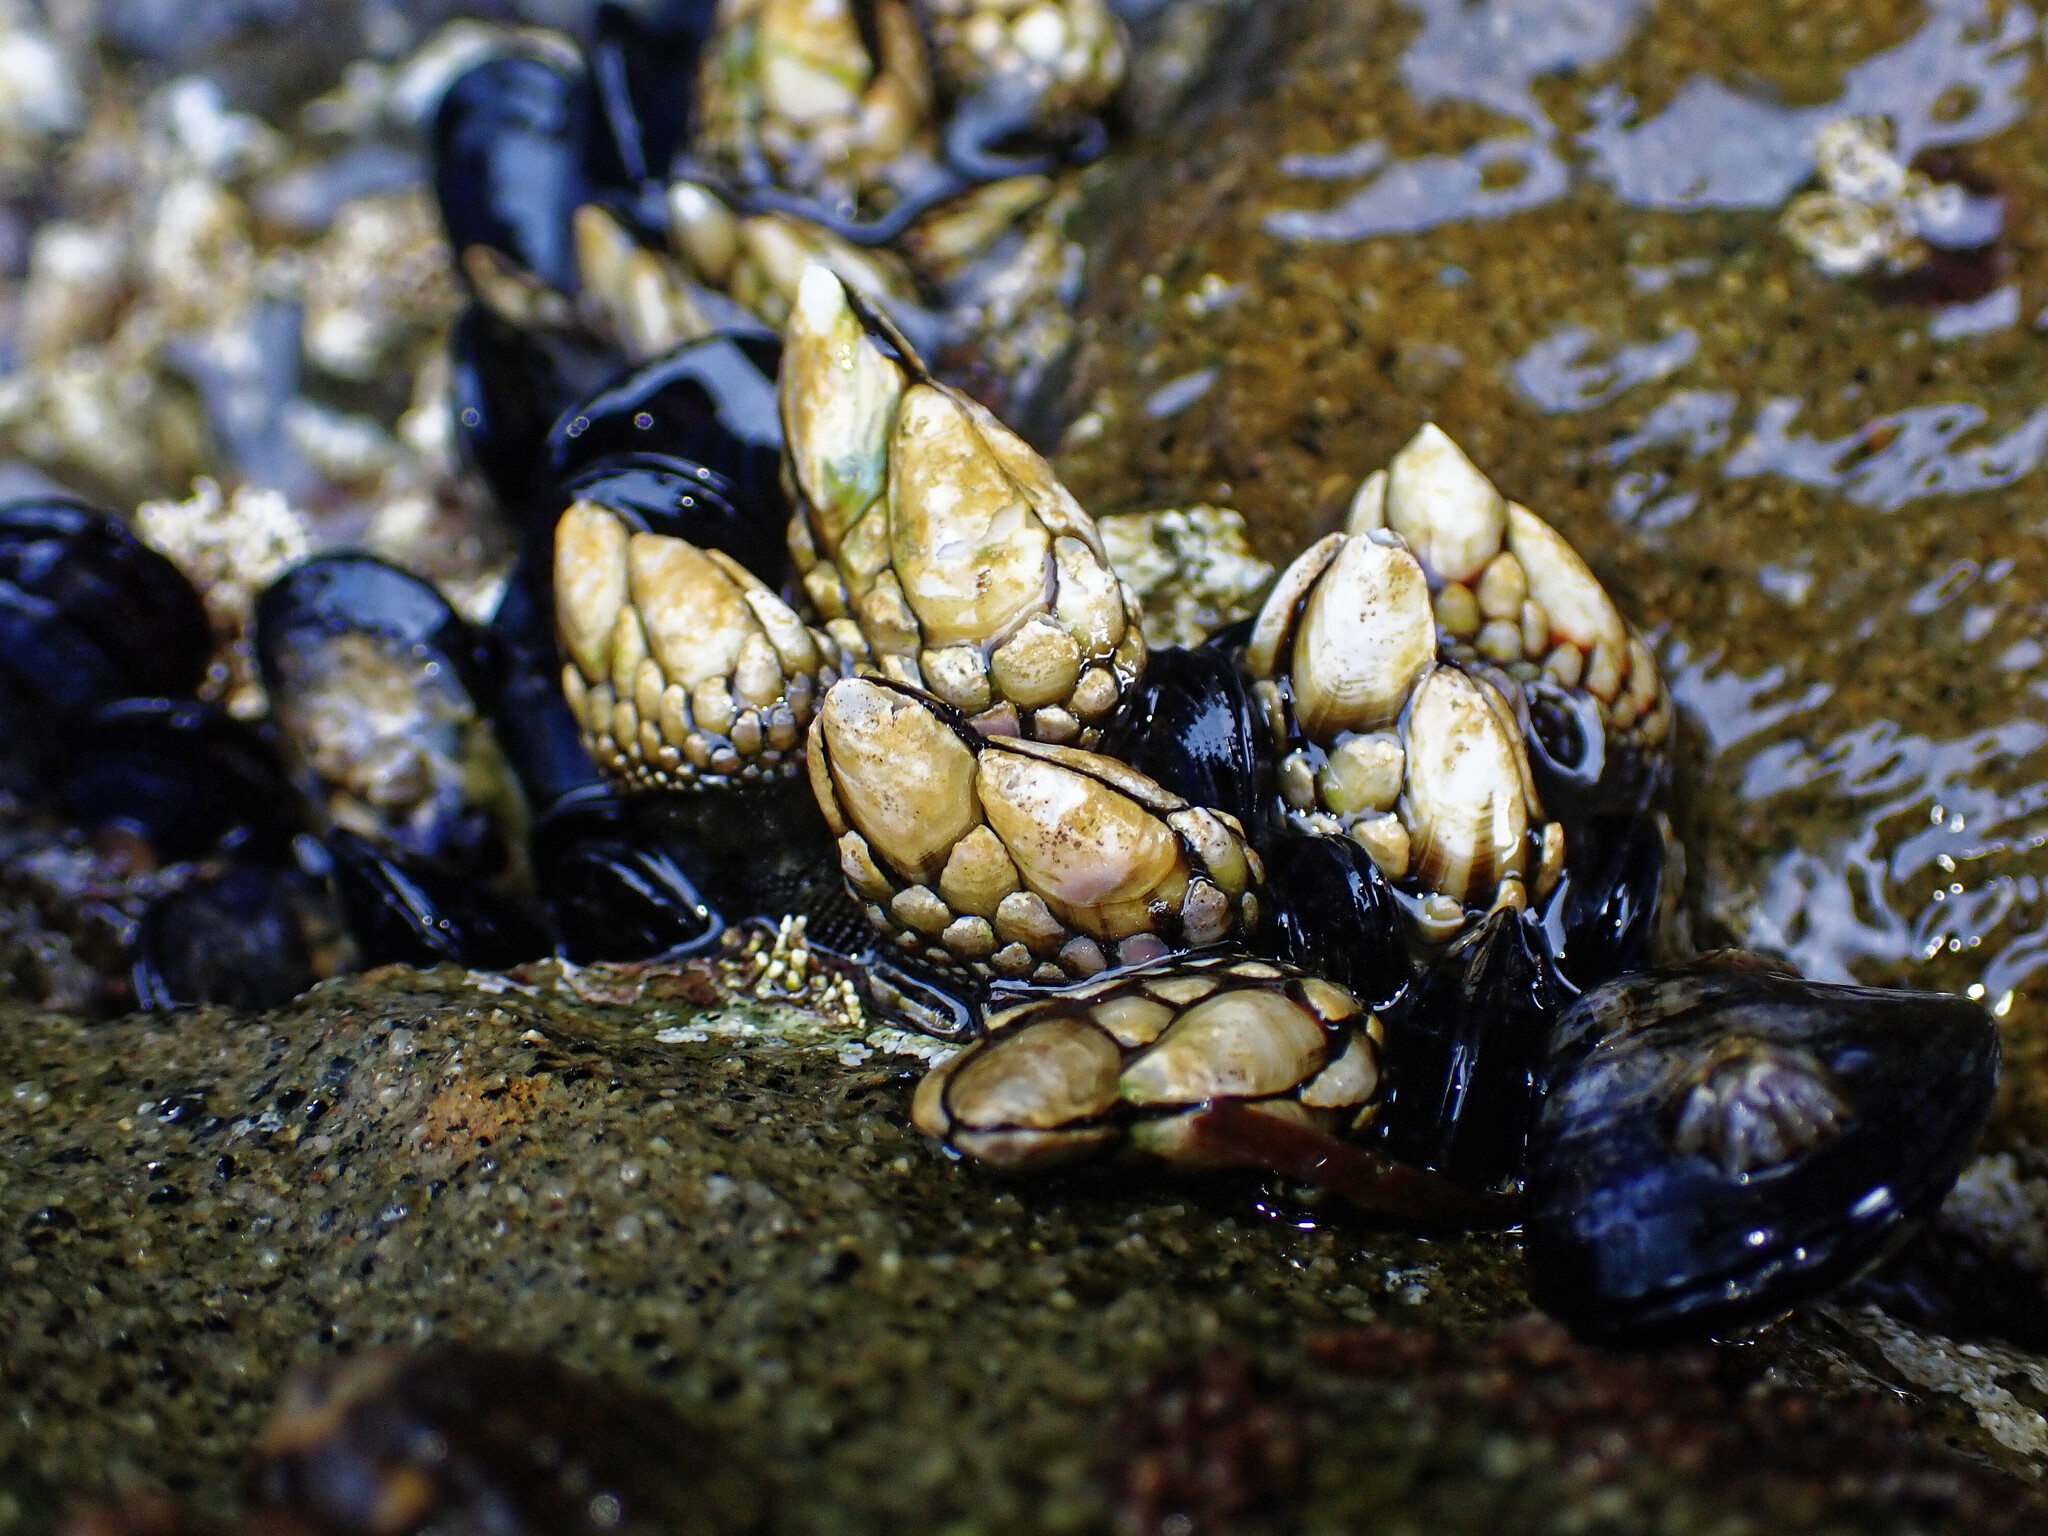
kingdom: Animalia
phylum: Arthropoda
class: Maxillopoda
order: Pedunculata
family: Pollicipedidae
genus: Pollicipes
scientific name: Pollicipes polymerus
